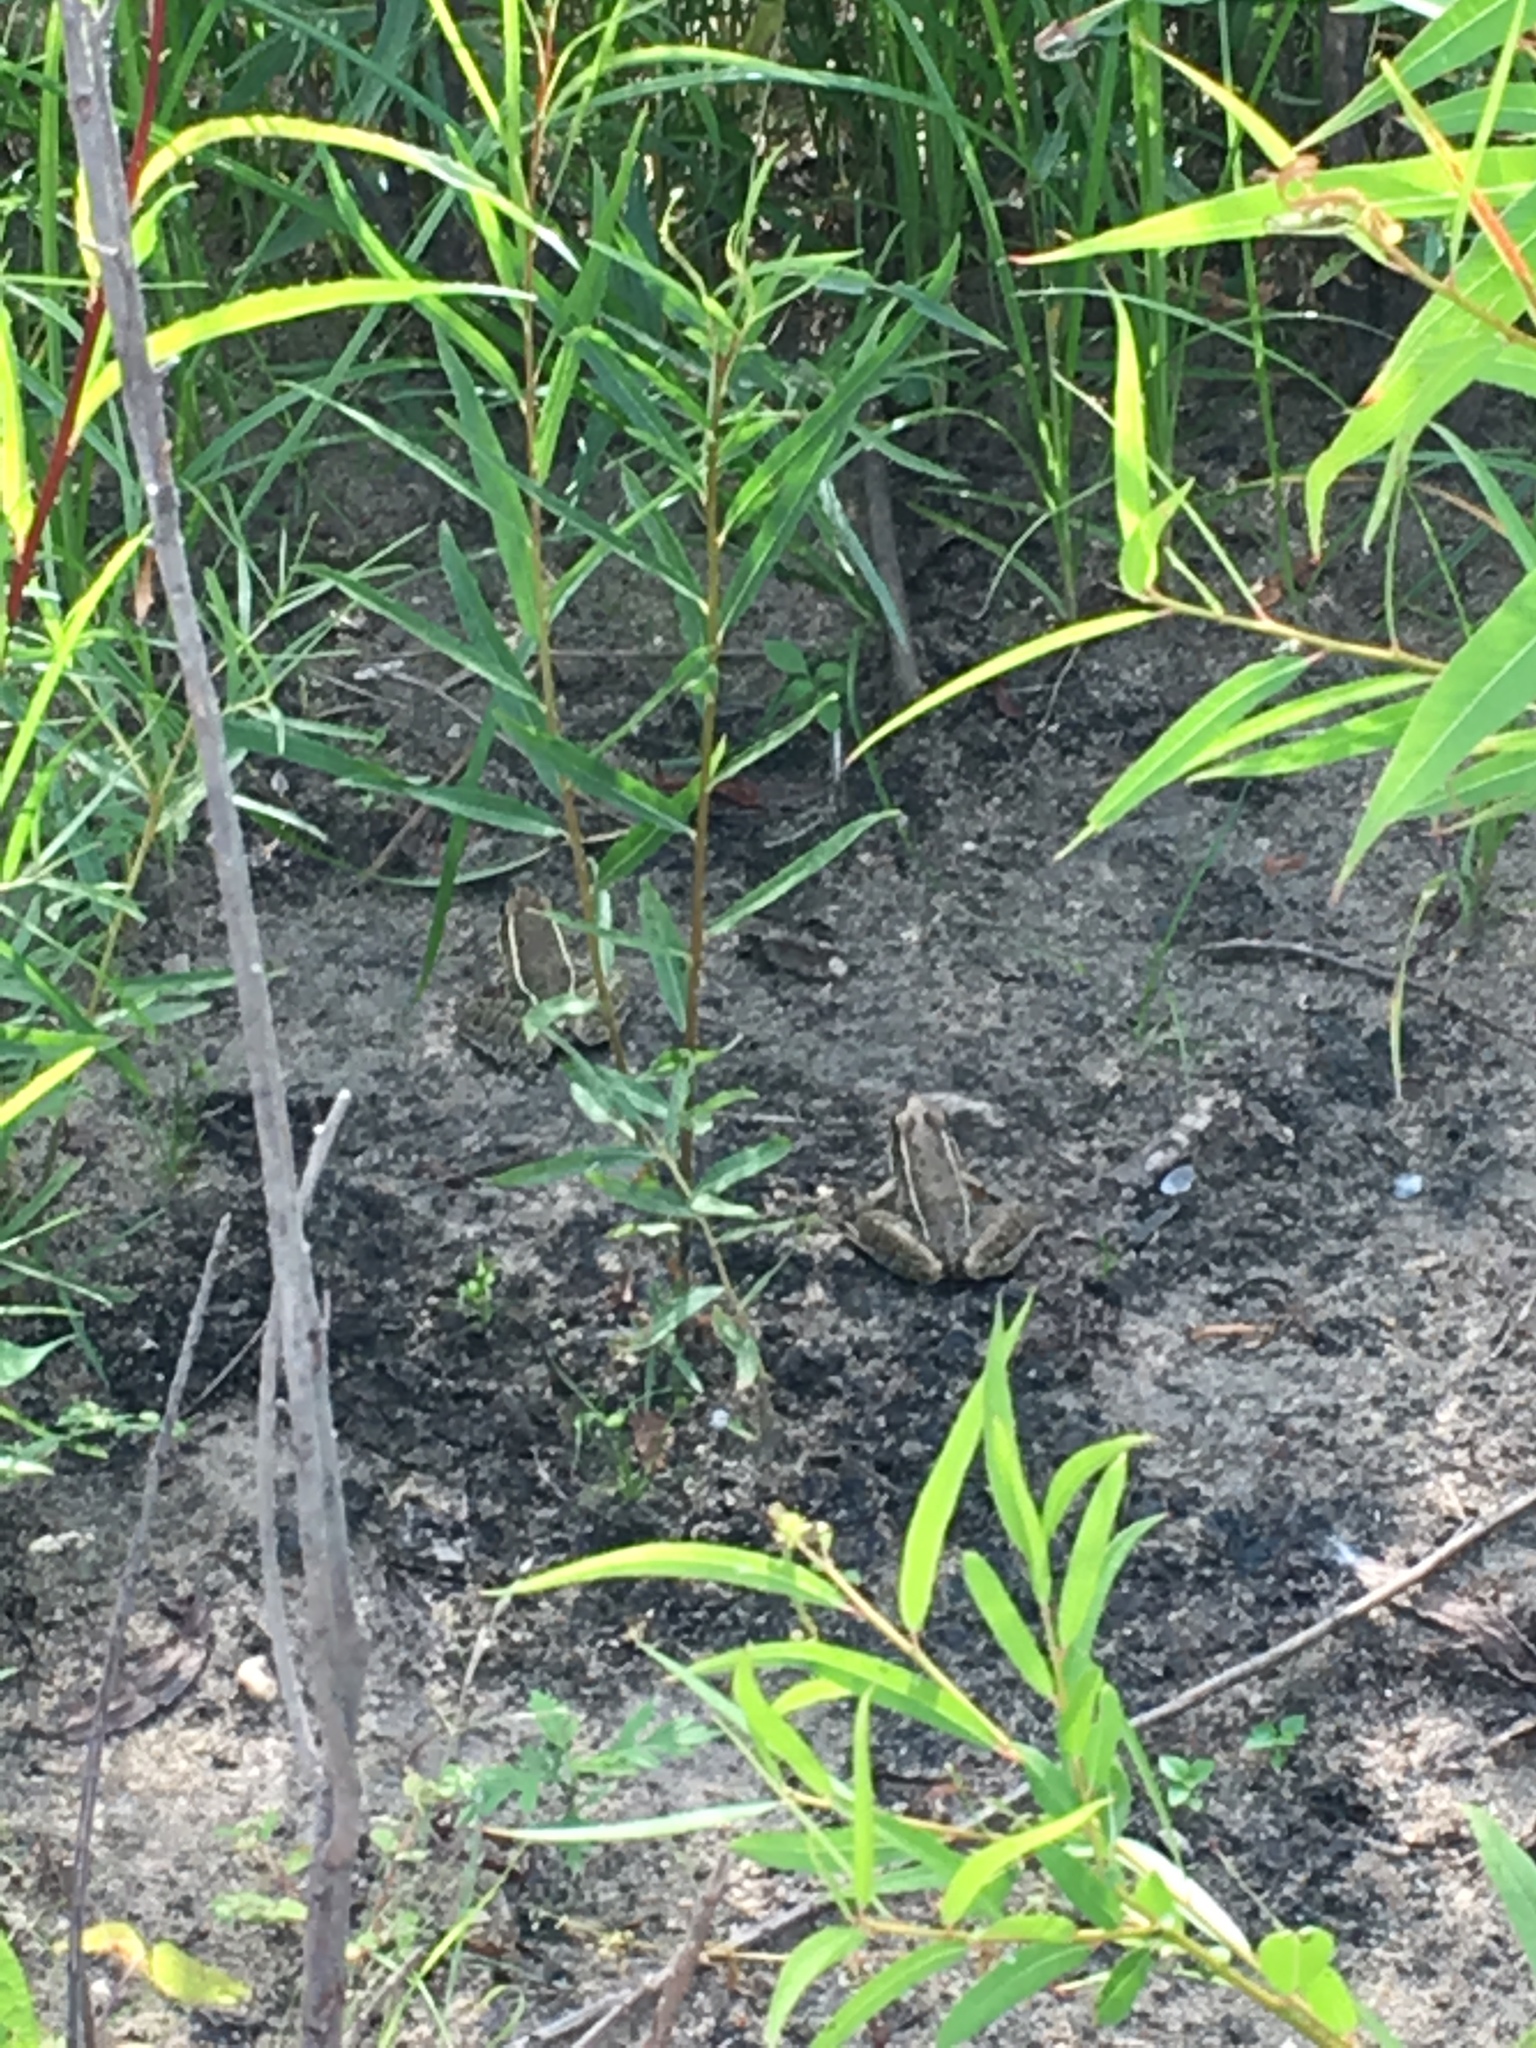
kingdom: Animalia
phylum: Chordata
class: Amphibia
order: Anura
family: Ranidae
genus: Lithobates
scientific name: Lithobates sphenocephalus
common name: Southern leopard frog
